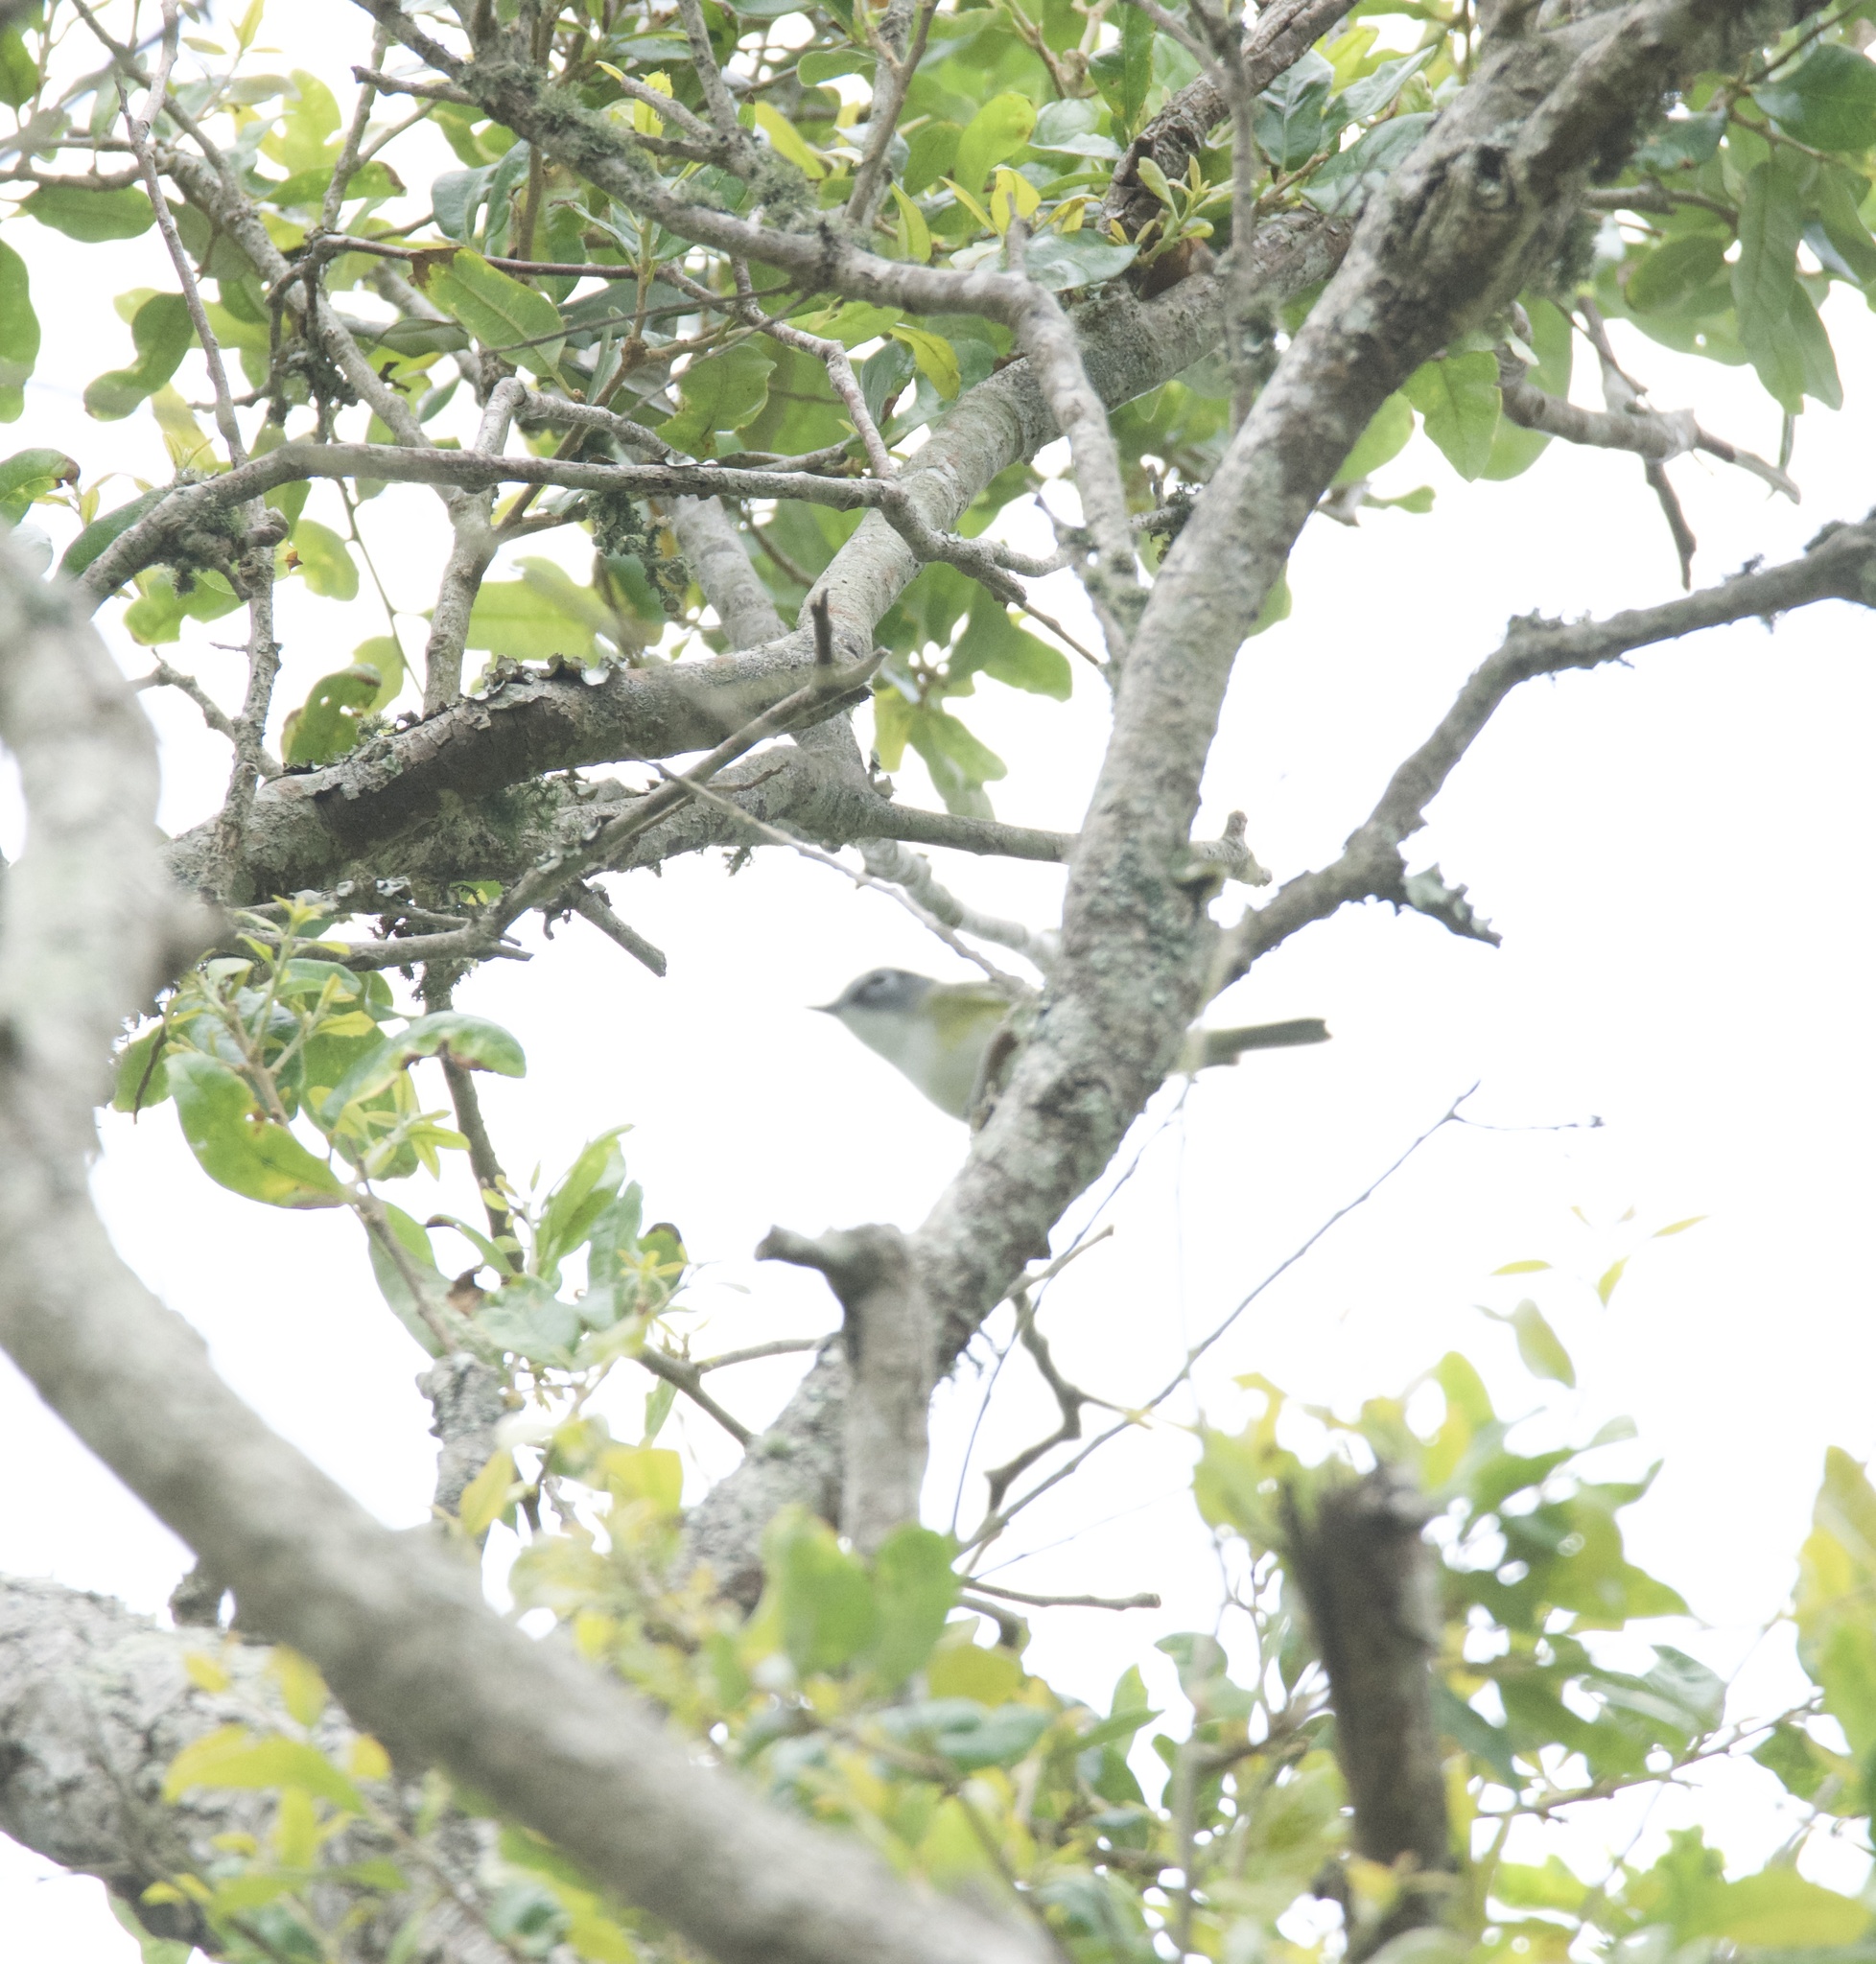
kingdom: Animalia
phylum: Chordata
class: Aves
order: Passeriformes
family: Vireonidae
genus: Vireo
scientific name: Vireo solitarius
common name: Blue-headed vireo
